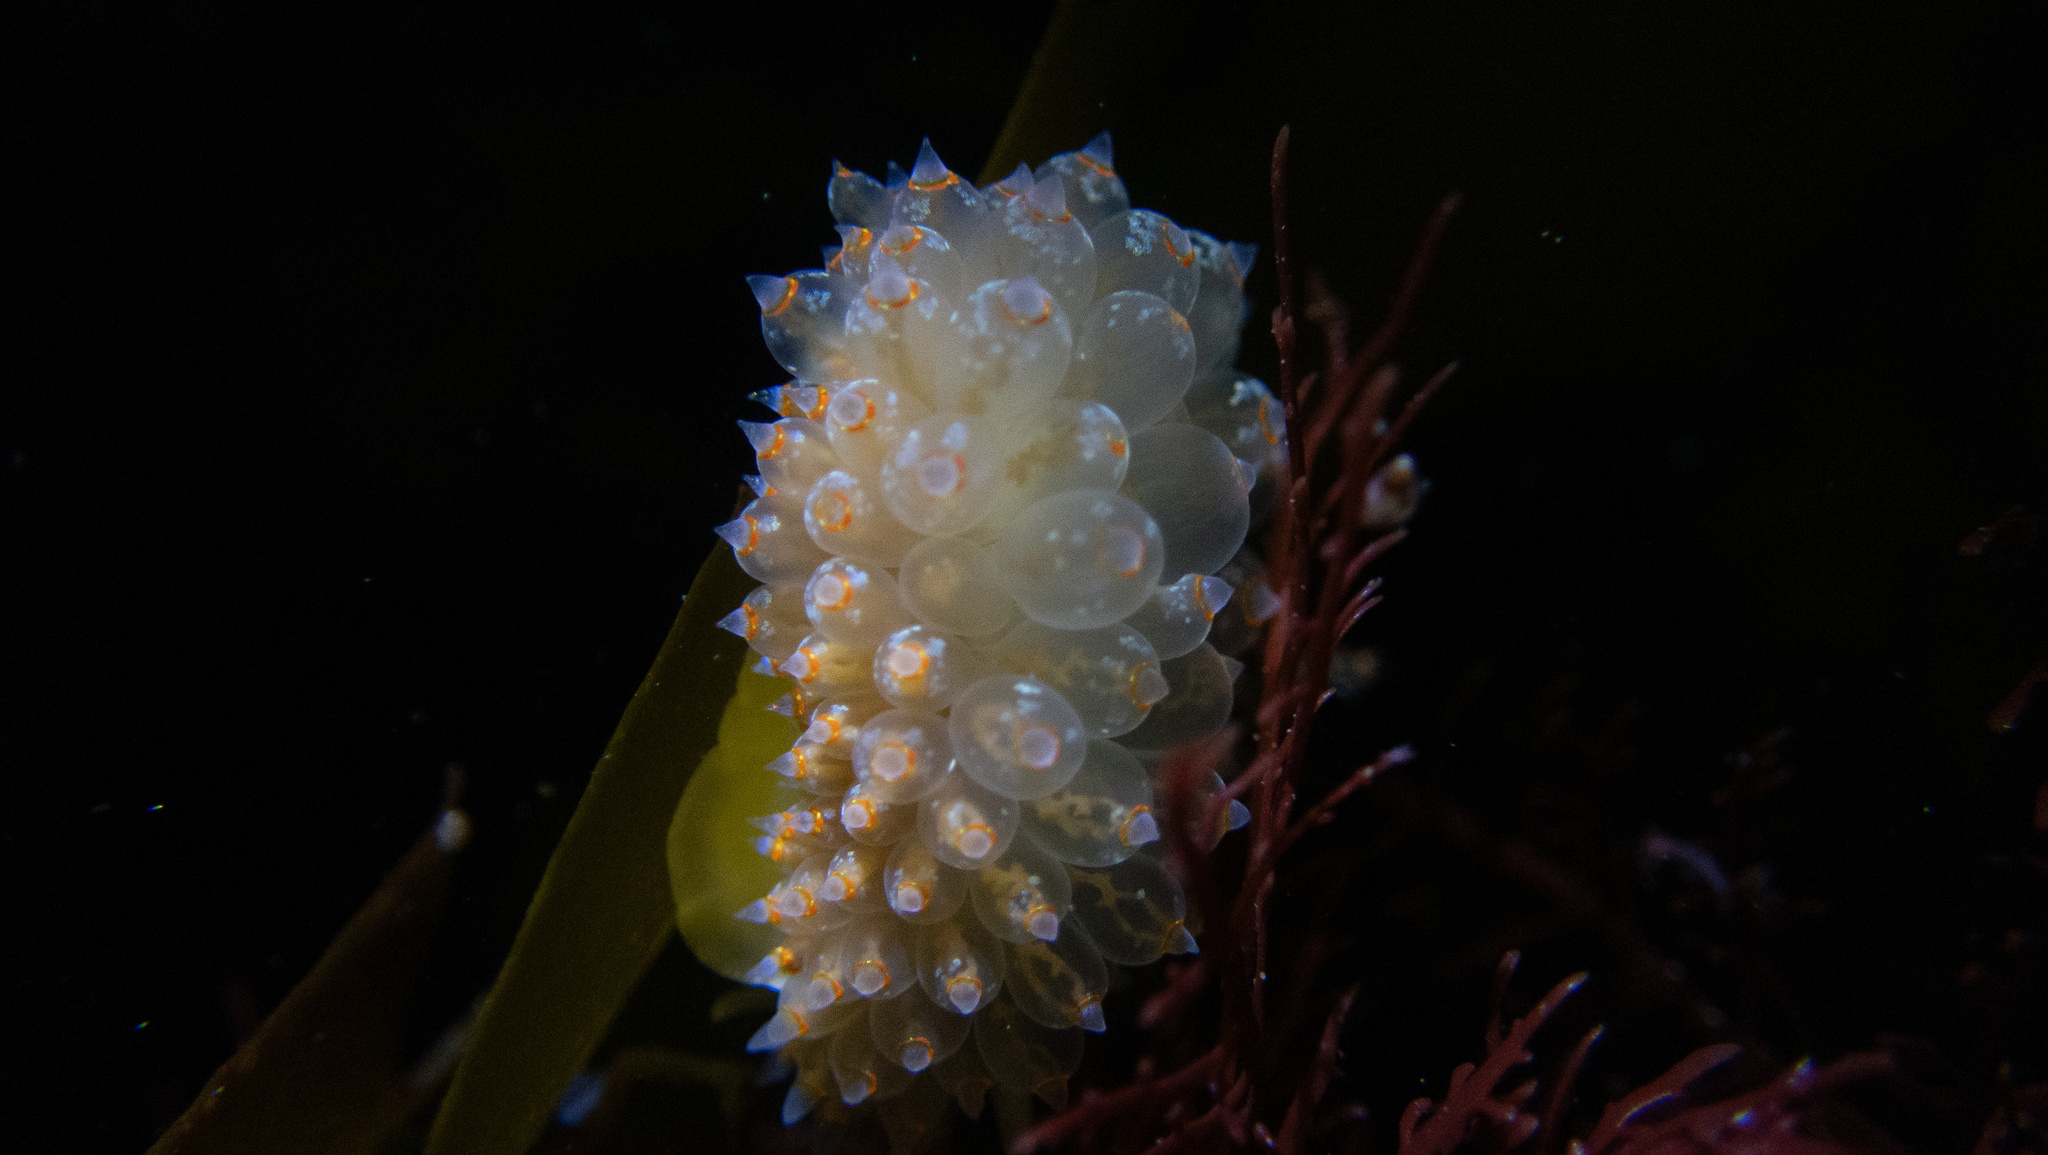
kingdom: Animalia
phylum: Mollusca
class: Gastropoda
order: Nudibranchia
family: Janolidae
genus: Antiopella
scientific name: Antiopella barbarensis
